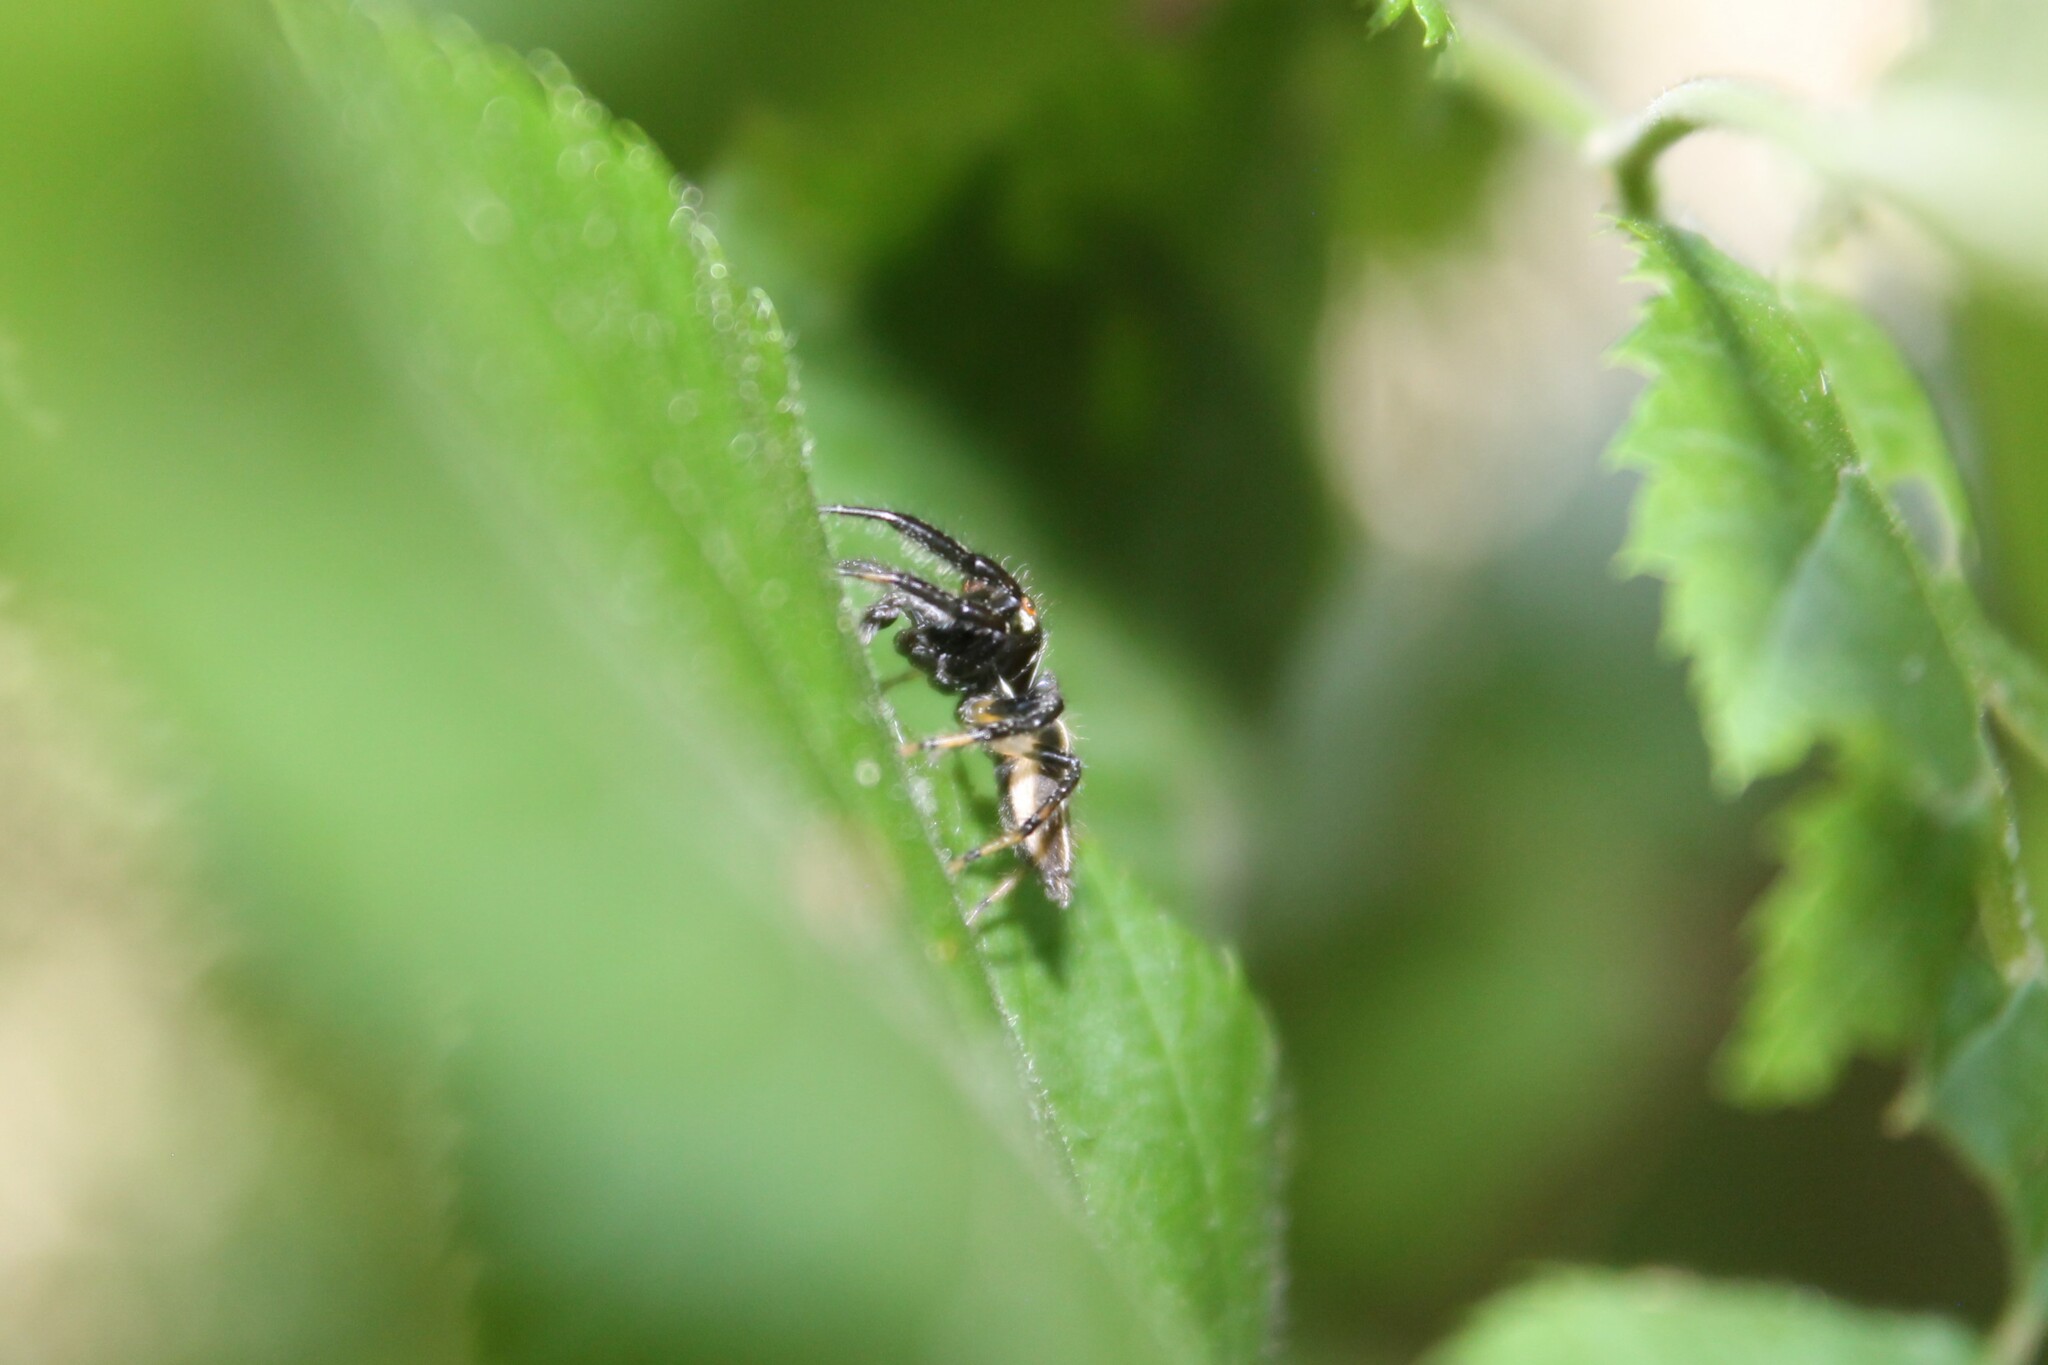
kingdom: Animalia
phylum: Arthropoda
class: Arachnida
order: Araneae
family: Salticidae
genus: Colonus
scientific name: Colonus sylvanus
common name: Jumping spiders
